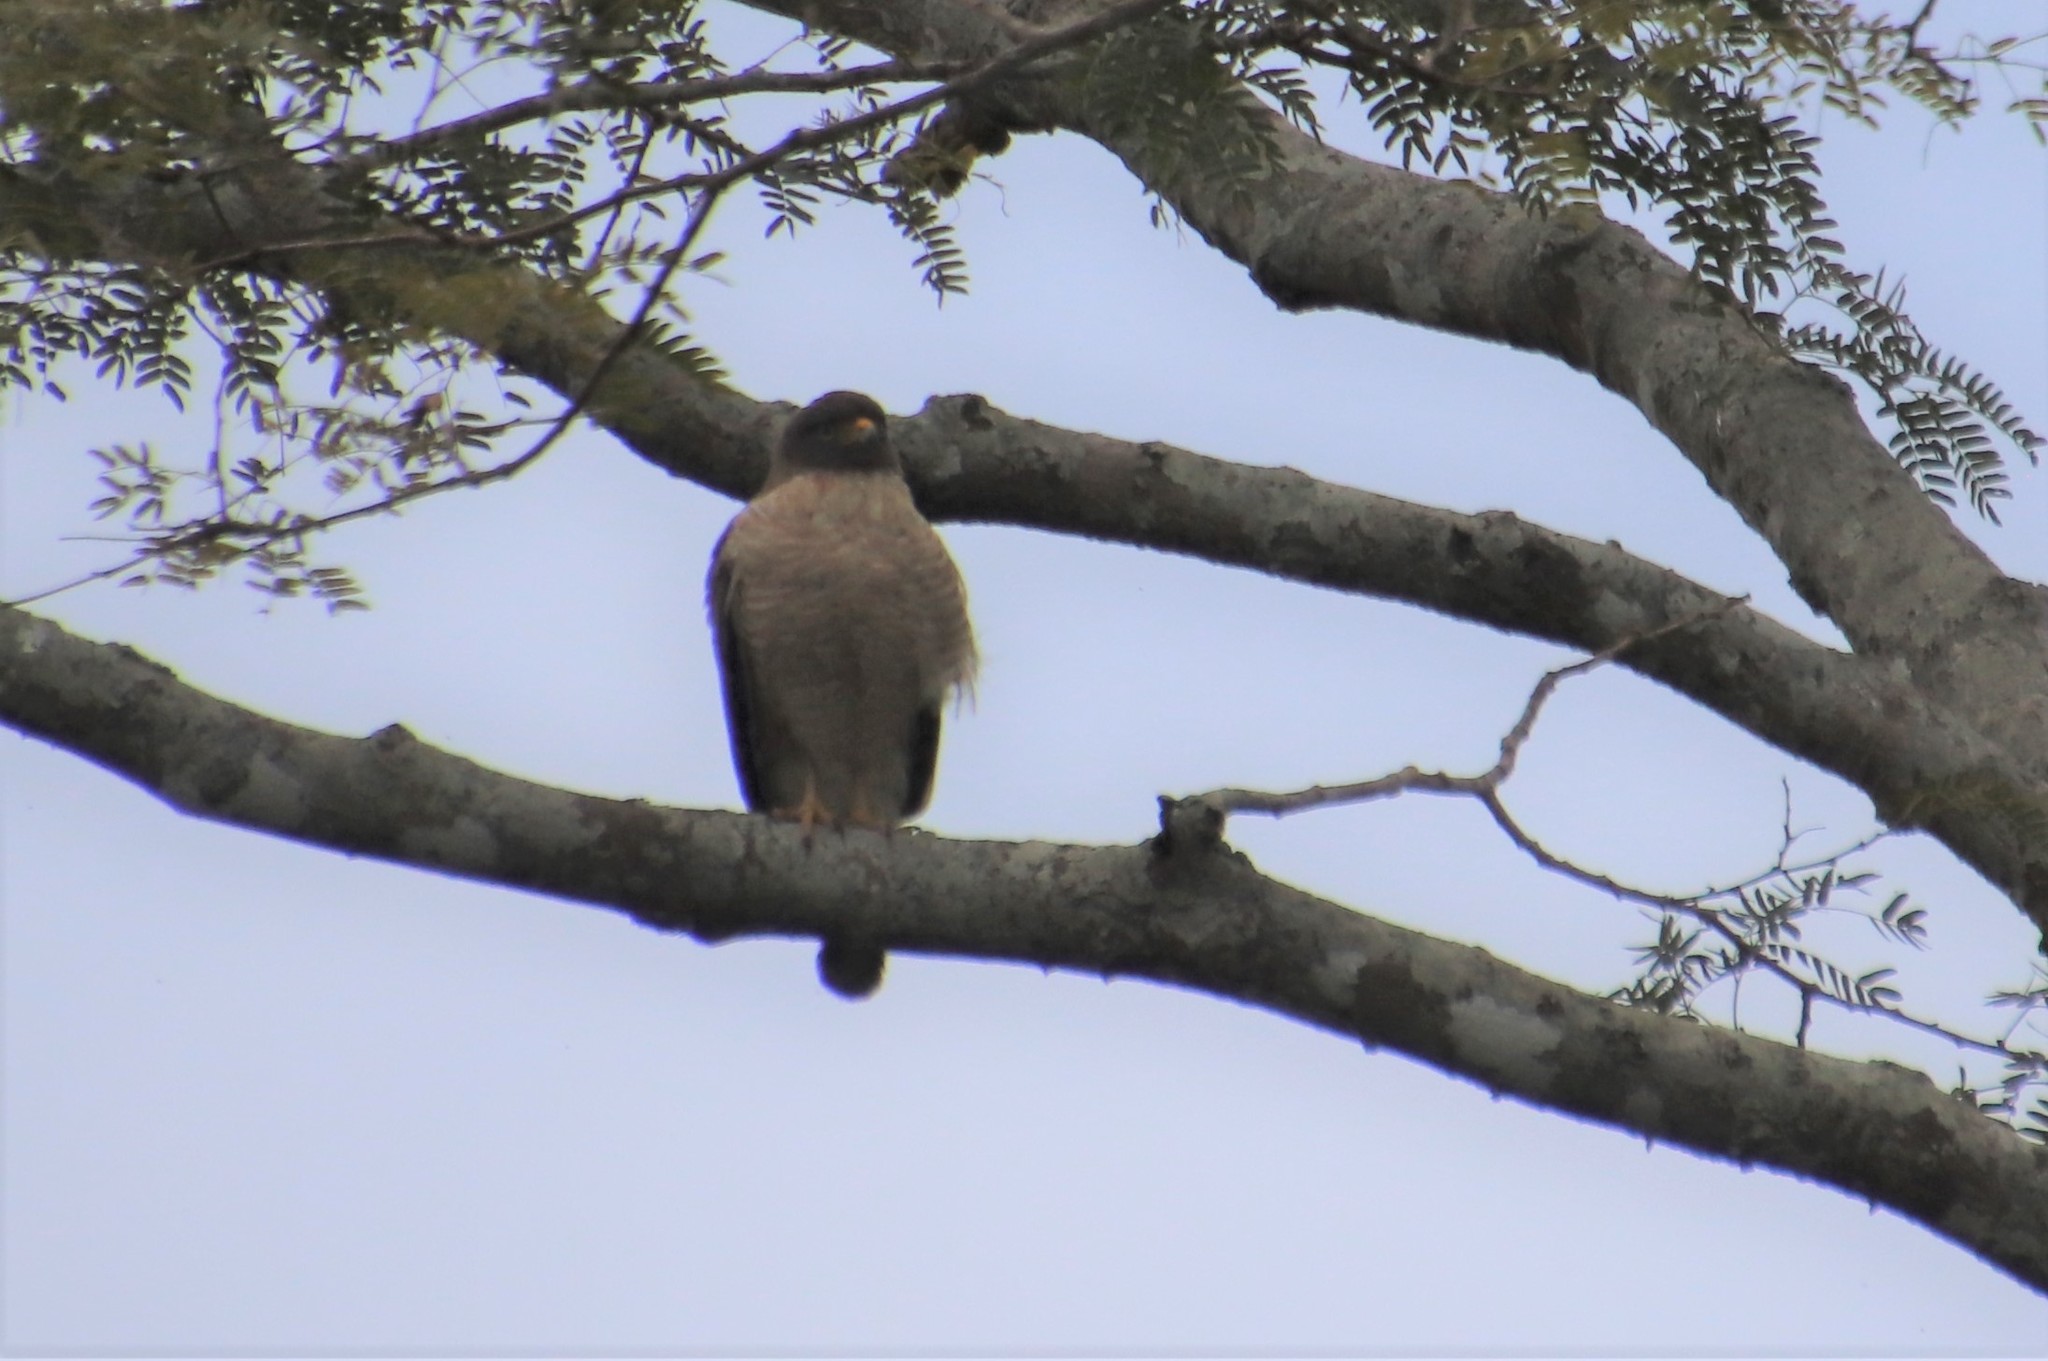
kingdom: Animalia
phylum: Chordata
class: Aves
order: Accipitriformes
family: Accipitridae
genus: Rupornis
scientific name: Rupornis magnirostris
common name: Roadside hawk
